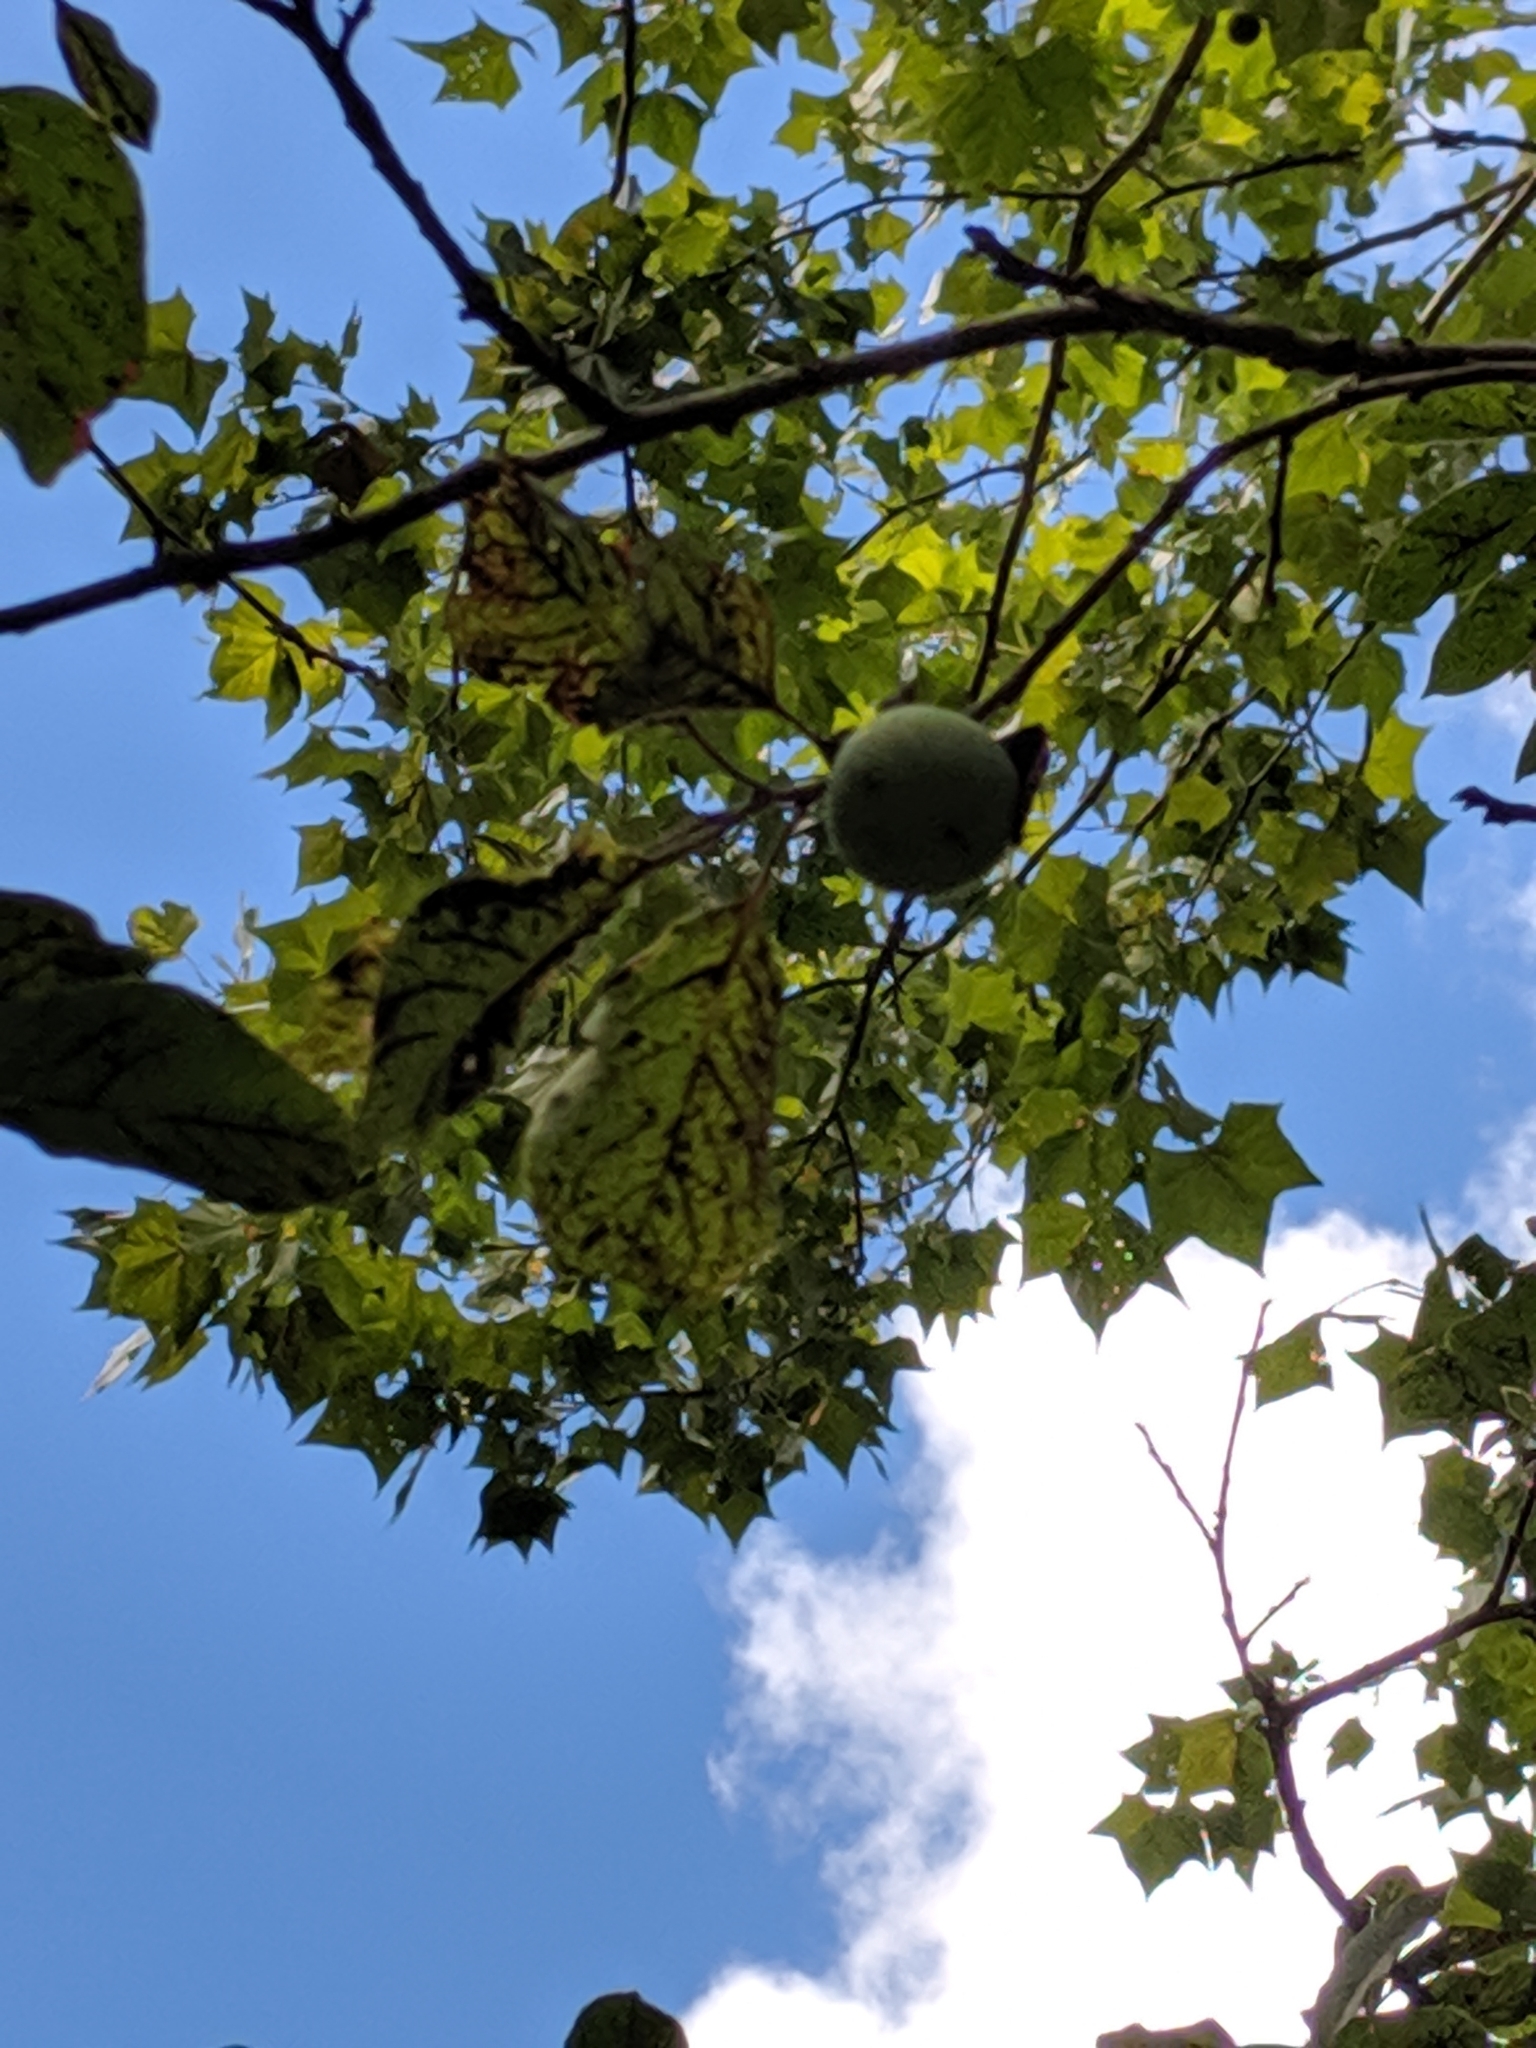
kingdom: Plantae
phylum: Tracheophyta
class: Magnoliopsida
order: Ericales
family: Ebenaceae
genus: Diospyros
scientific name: Diospyros virginiana
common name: Persimmon
